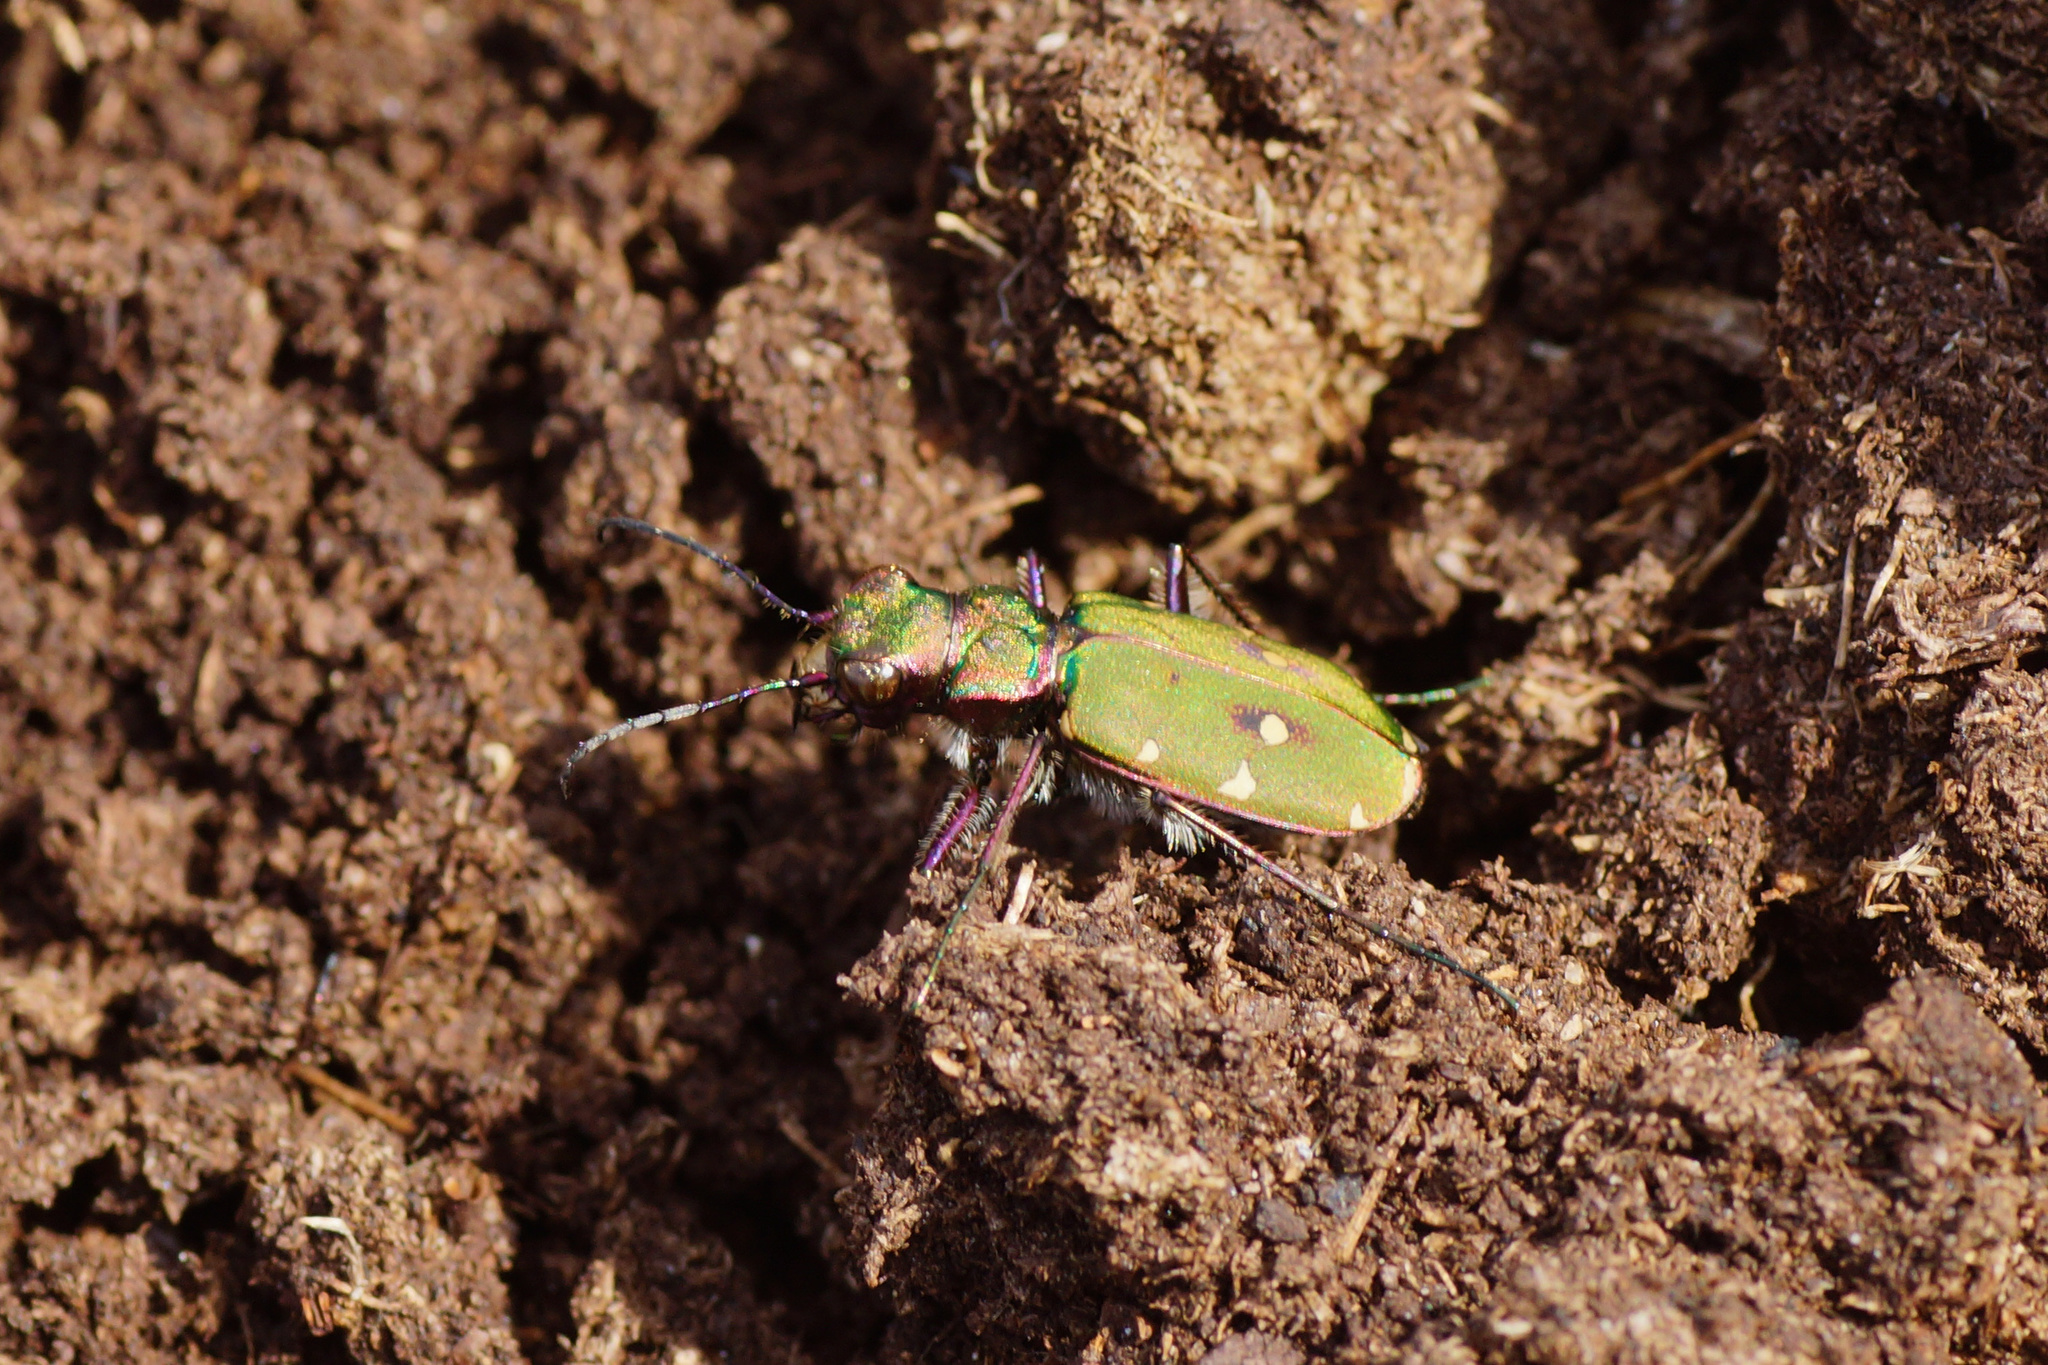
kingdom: Animalia
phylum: Arthropoda
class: Insecta
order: Coleoptera
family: Carabidae
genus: Cicindela
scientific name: Cicindela campestris
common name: Common tiger beetle
